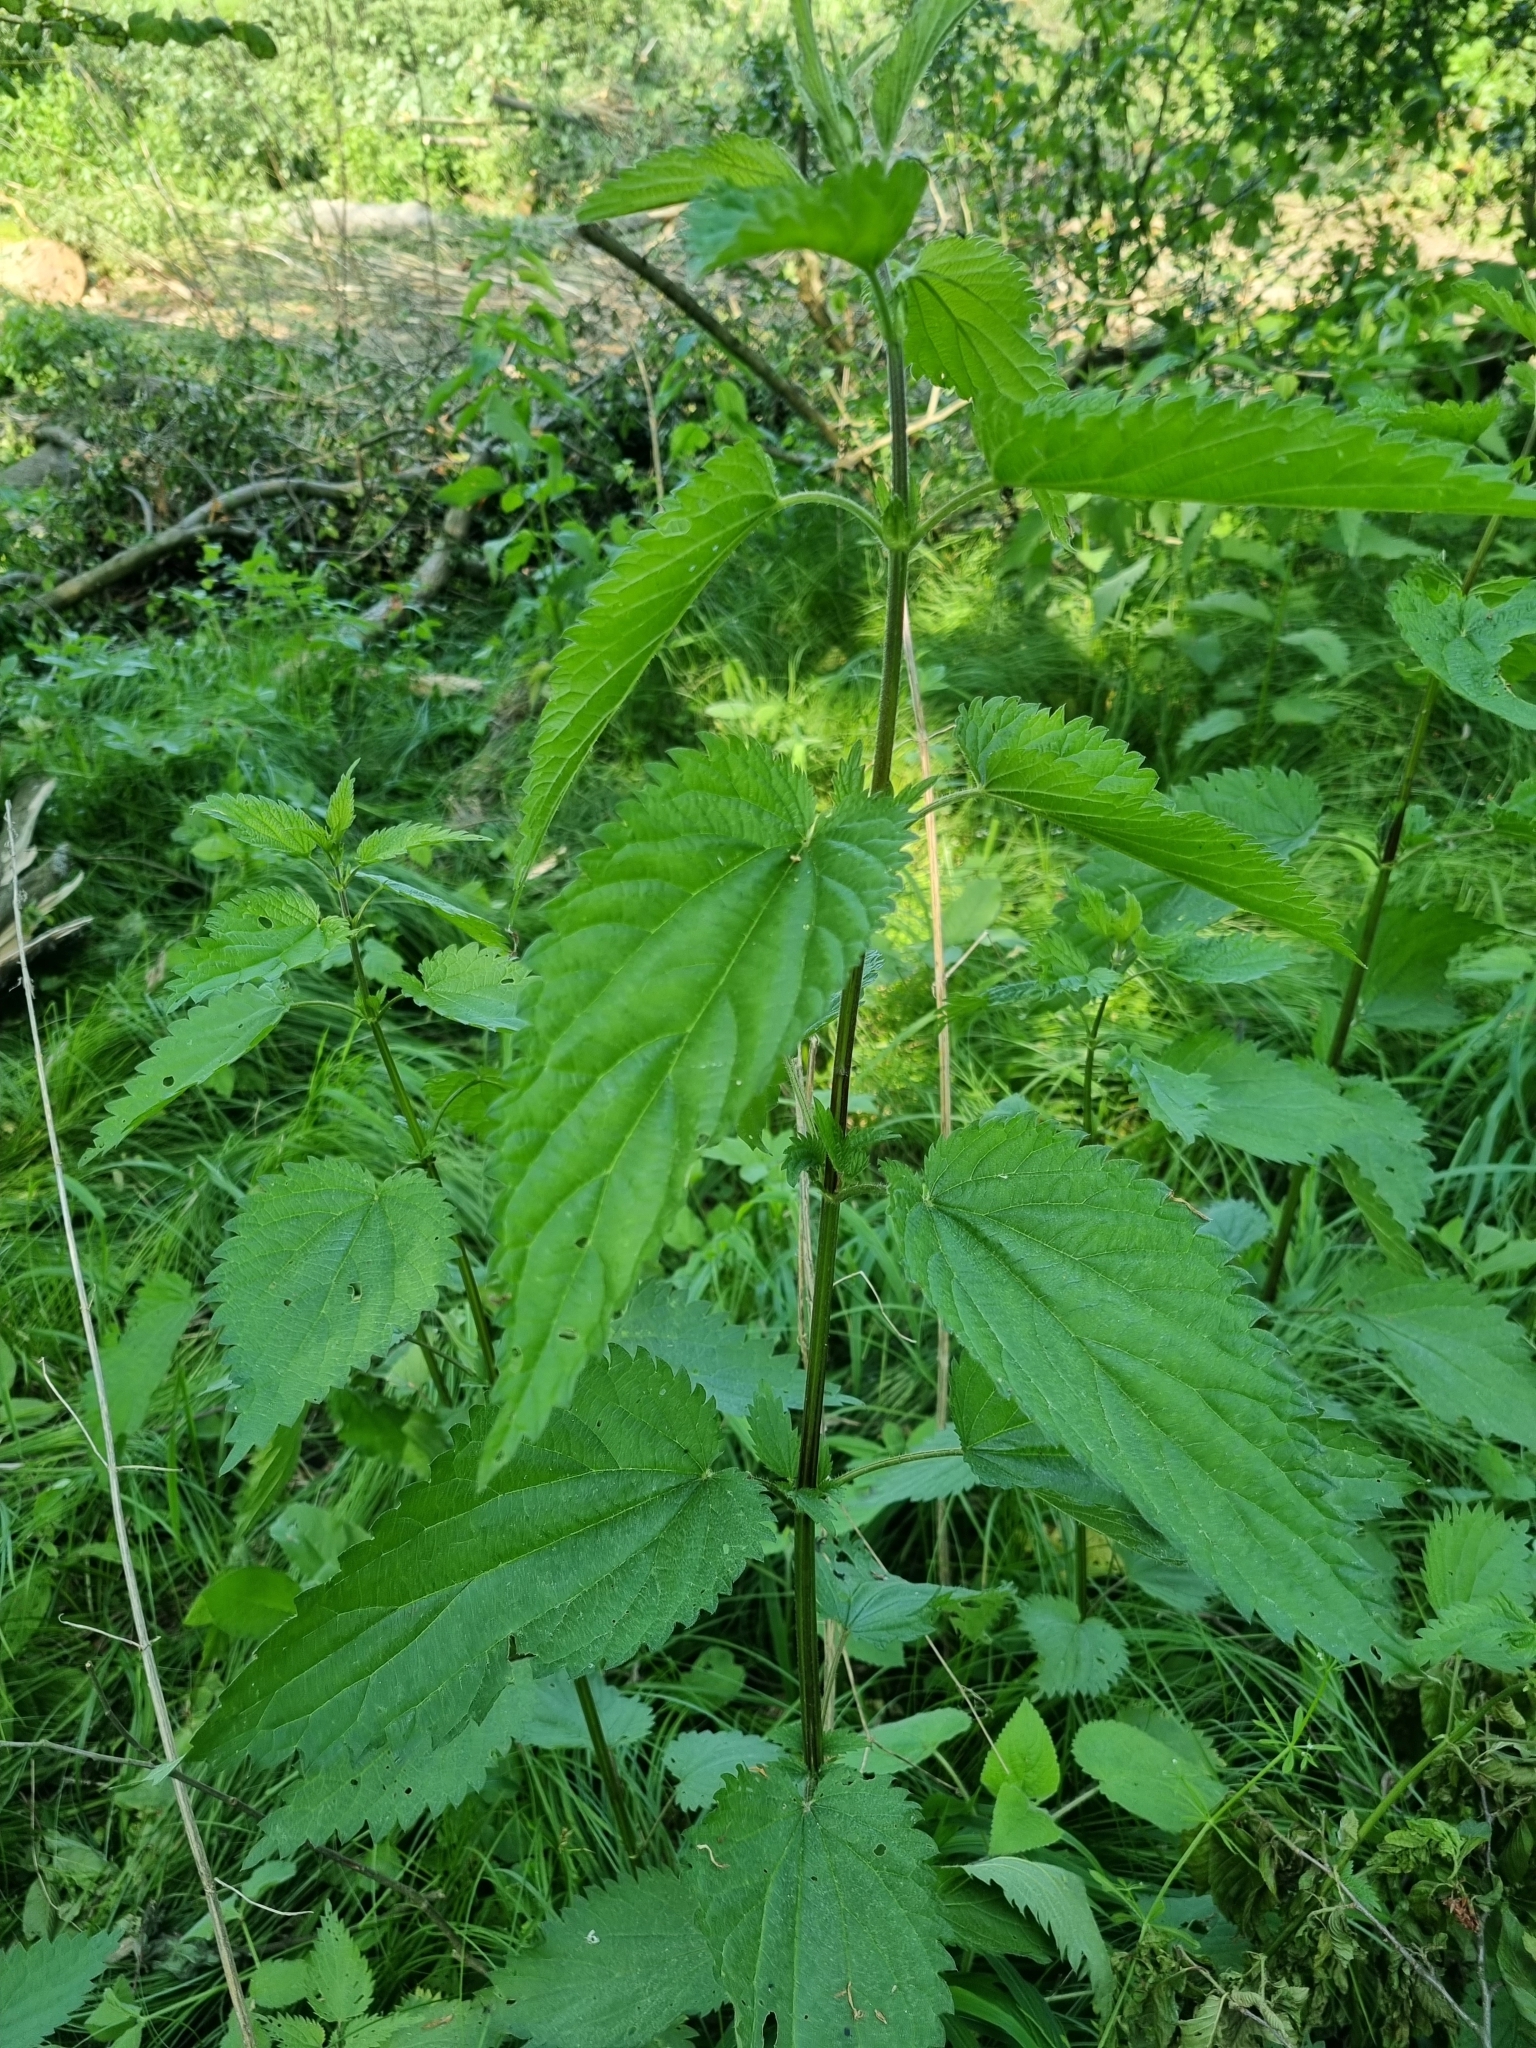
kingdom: Plantae
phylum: Tracheophyta
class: Magnoliopsida
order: Rosales
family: Urticaceae
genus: Urtica
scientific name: Urtica dioica
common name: Common nettle
